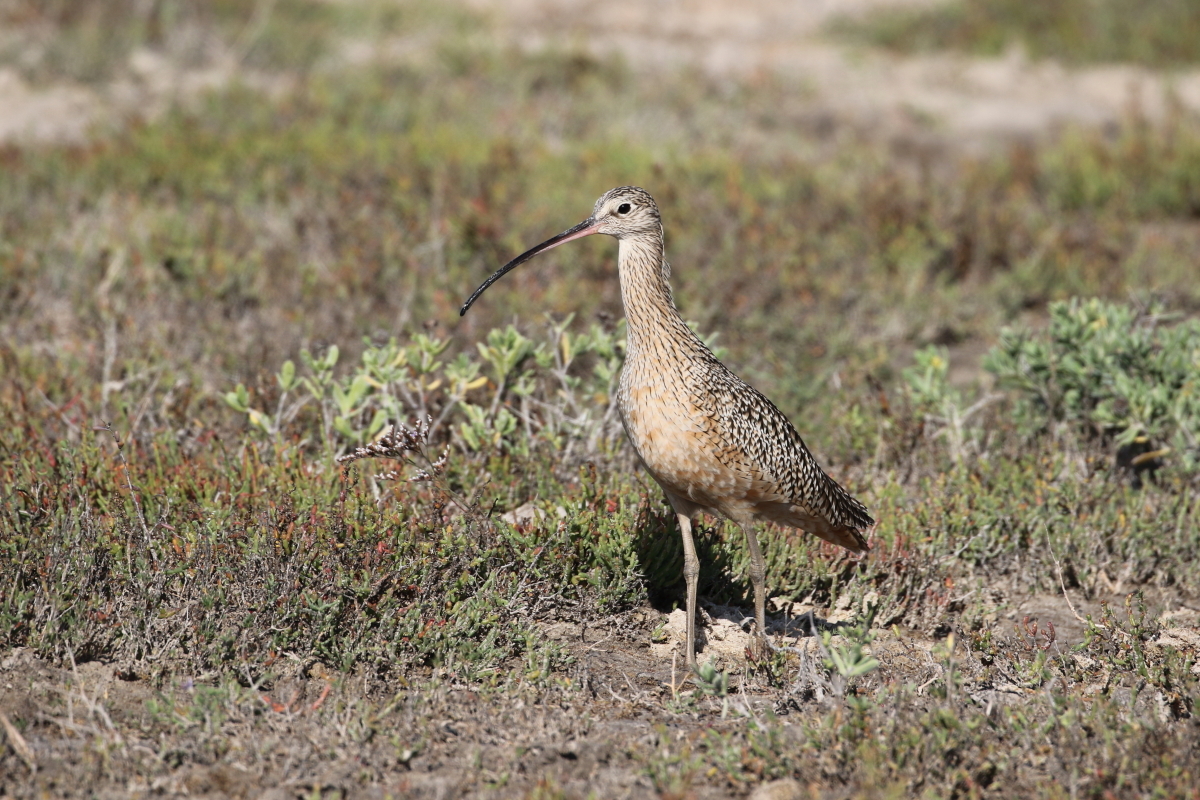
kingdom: Animalia
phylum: Chordata
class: Aves
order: Charadriiformes
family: Scolopacidae
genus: Numenius
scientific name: Numenius americanus
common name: Long-billed curlew
